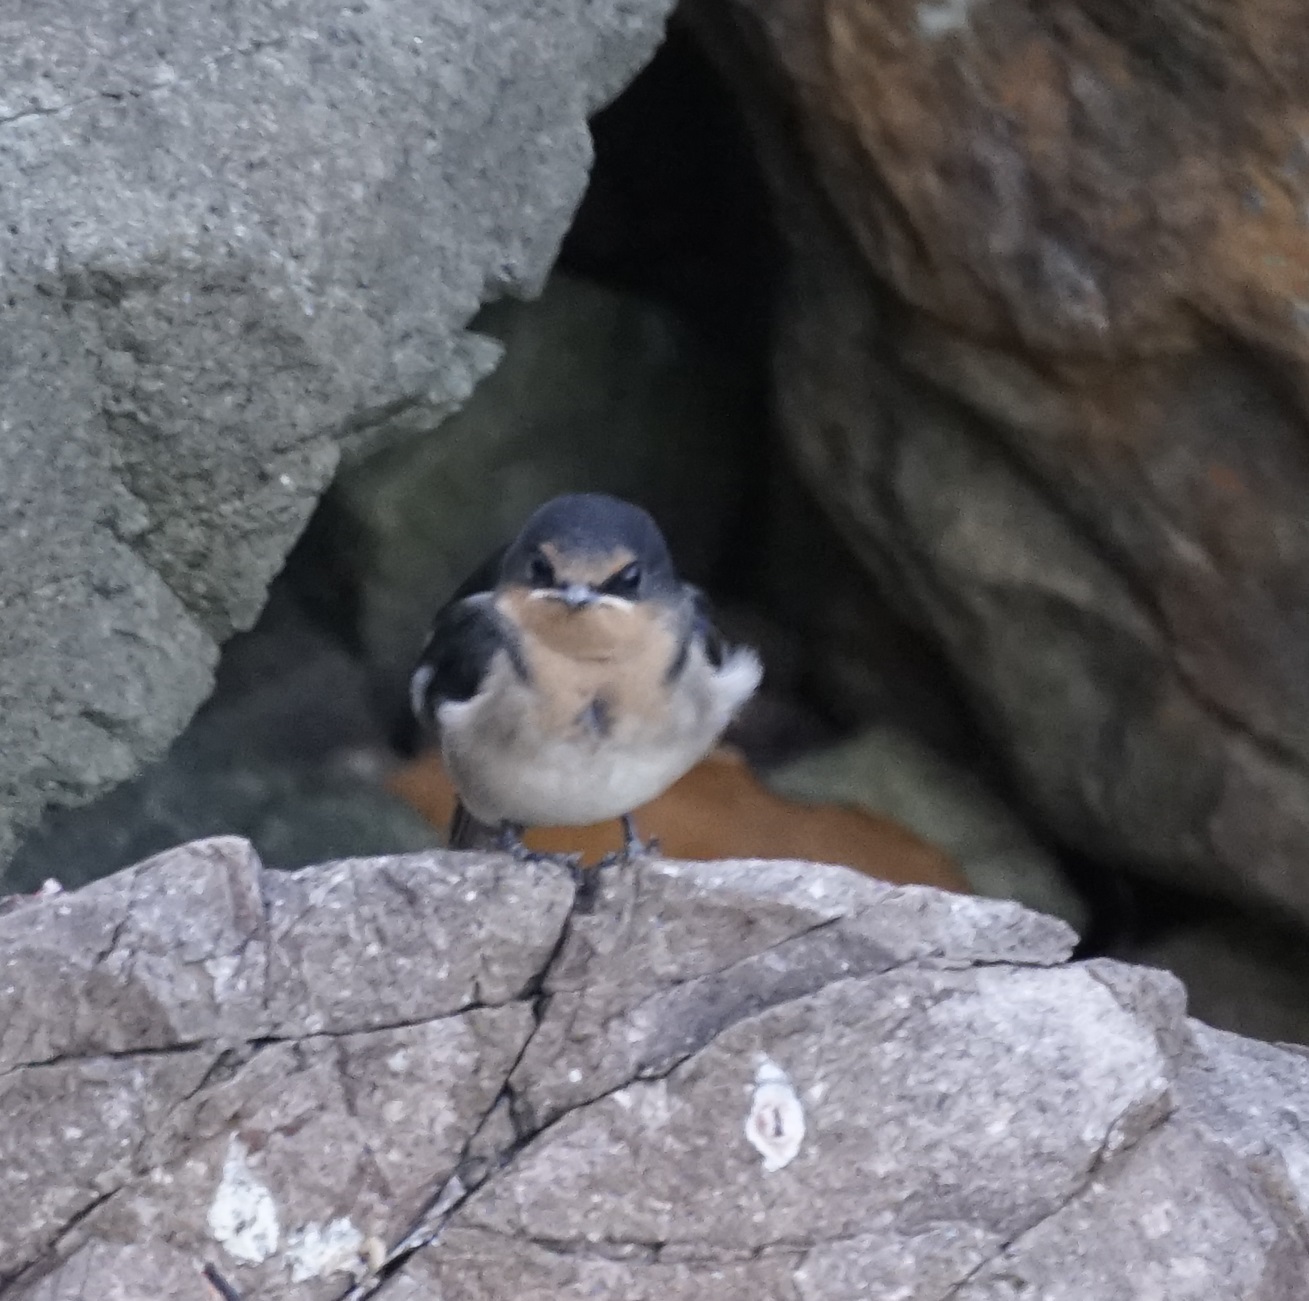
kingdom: Animalia
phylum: Chordata
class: Aves
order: Passeriformes
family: Hirundinidae
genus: Hirundo
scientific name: Hirundo neoxena
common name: Welcome swallow
